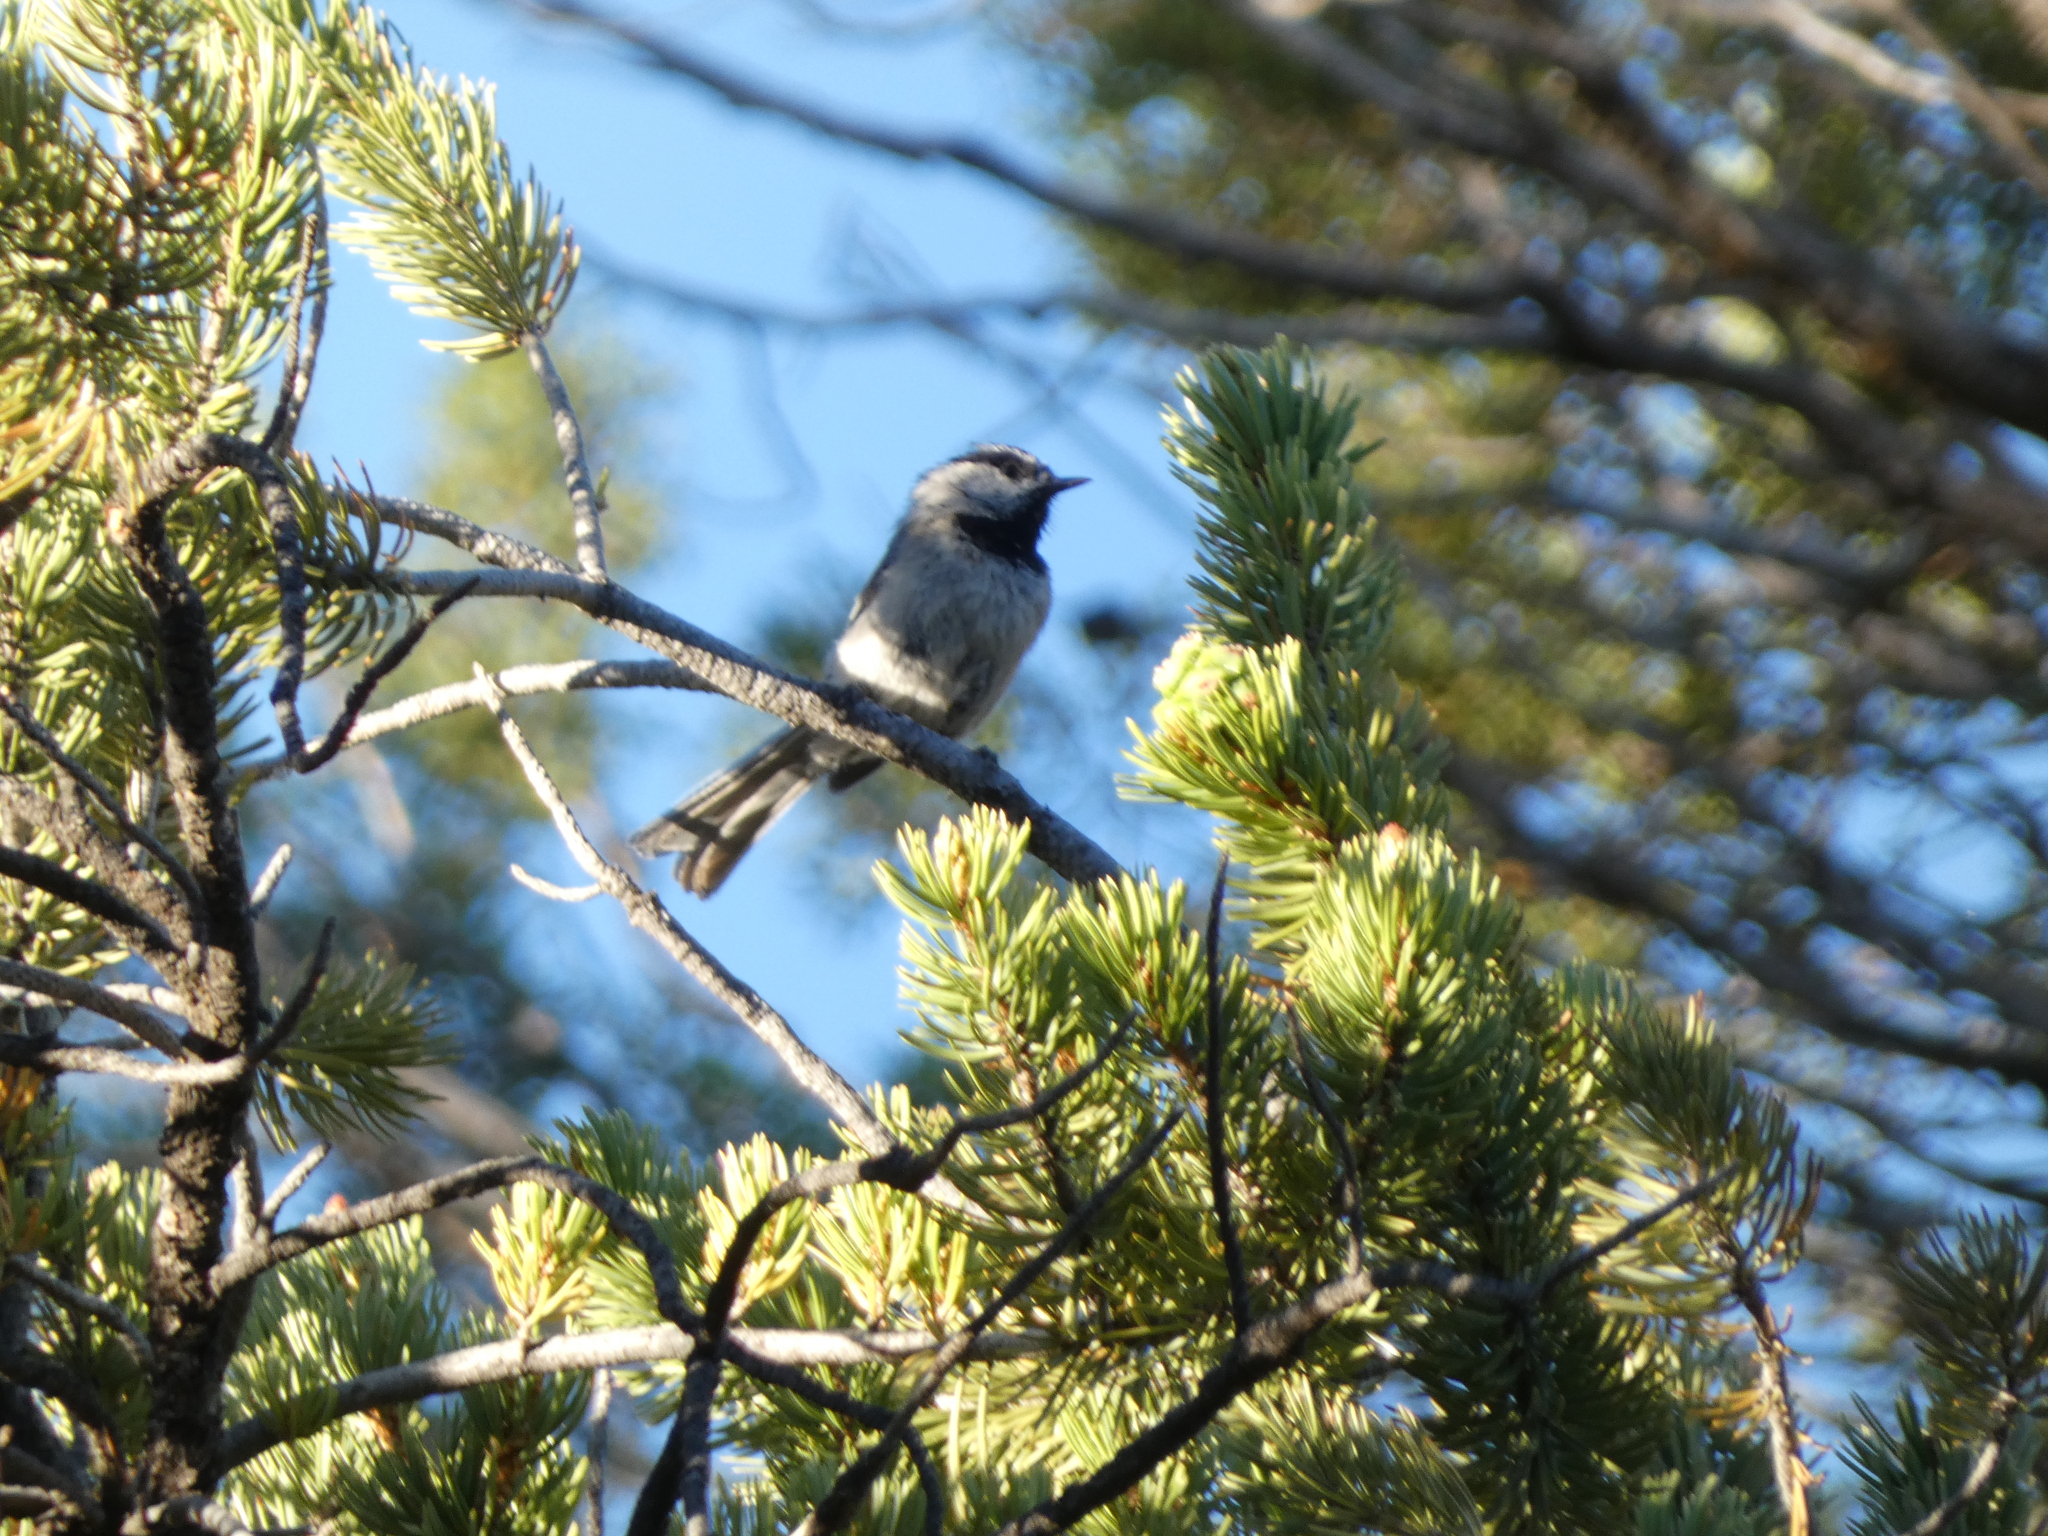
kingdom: Animalia
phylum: Chordata
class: Aves
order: Passeriformes
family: Paridae
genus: Poecile
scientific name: Poecile gambeli
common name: Mountain chickadee
